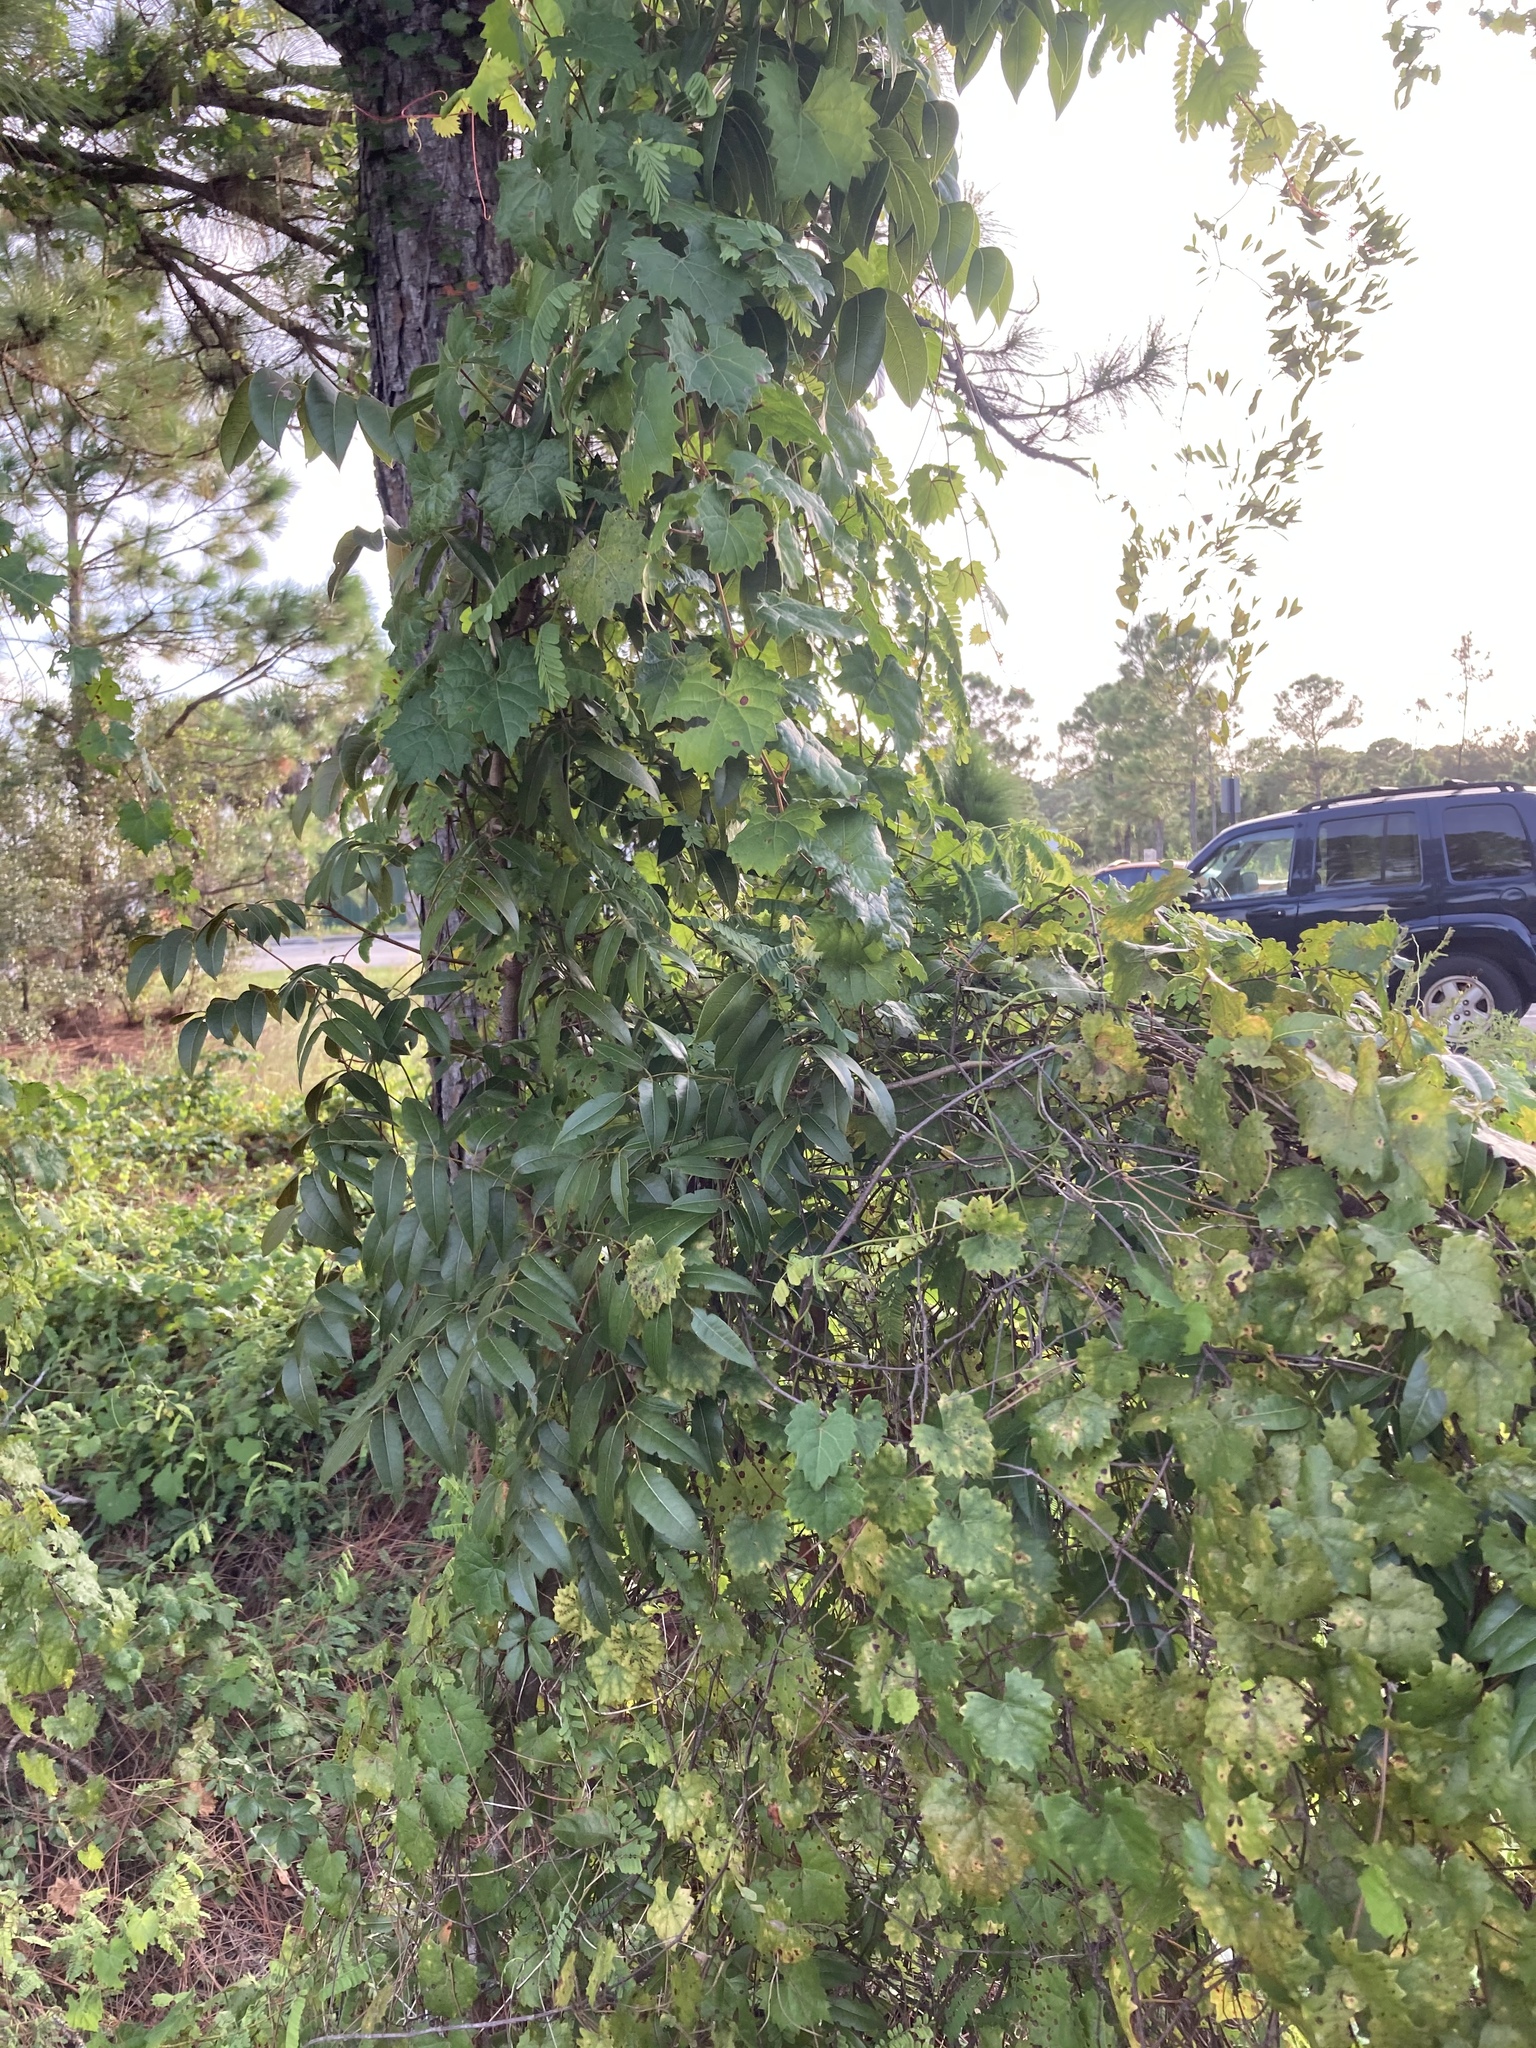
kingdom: Plantae
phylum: Tracheophyta
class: Magnoliopsida
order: Sapindales
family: Meliaceae
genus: Swietenia
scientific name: Swietenia mahagoni
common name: West indian mahogany
